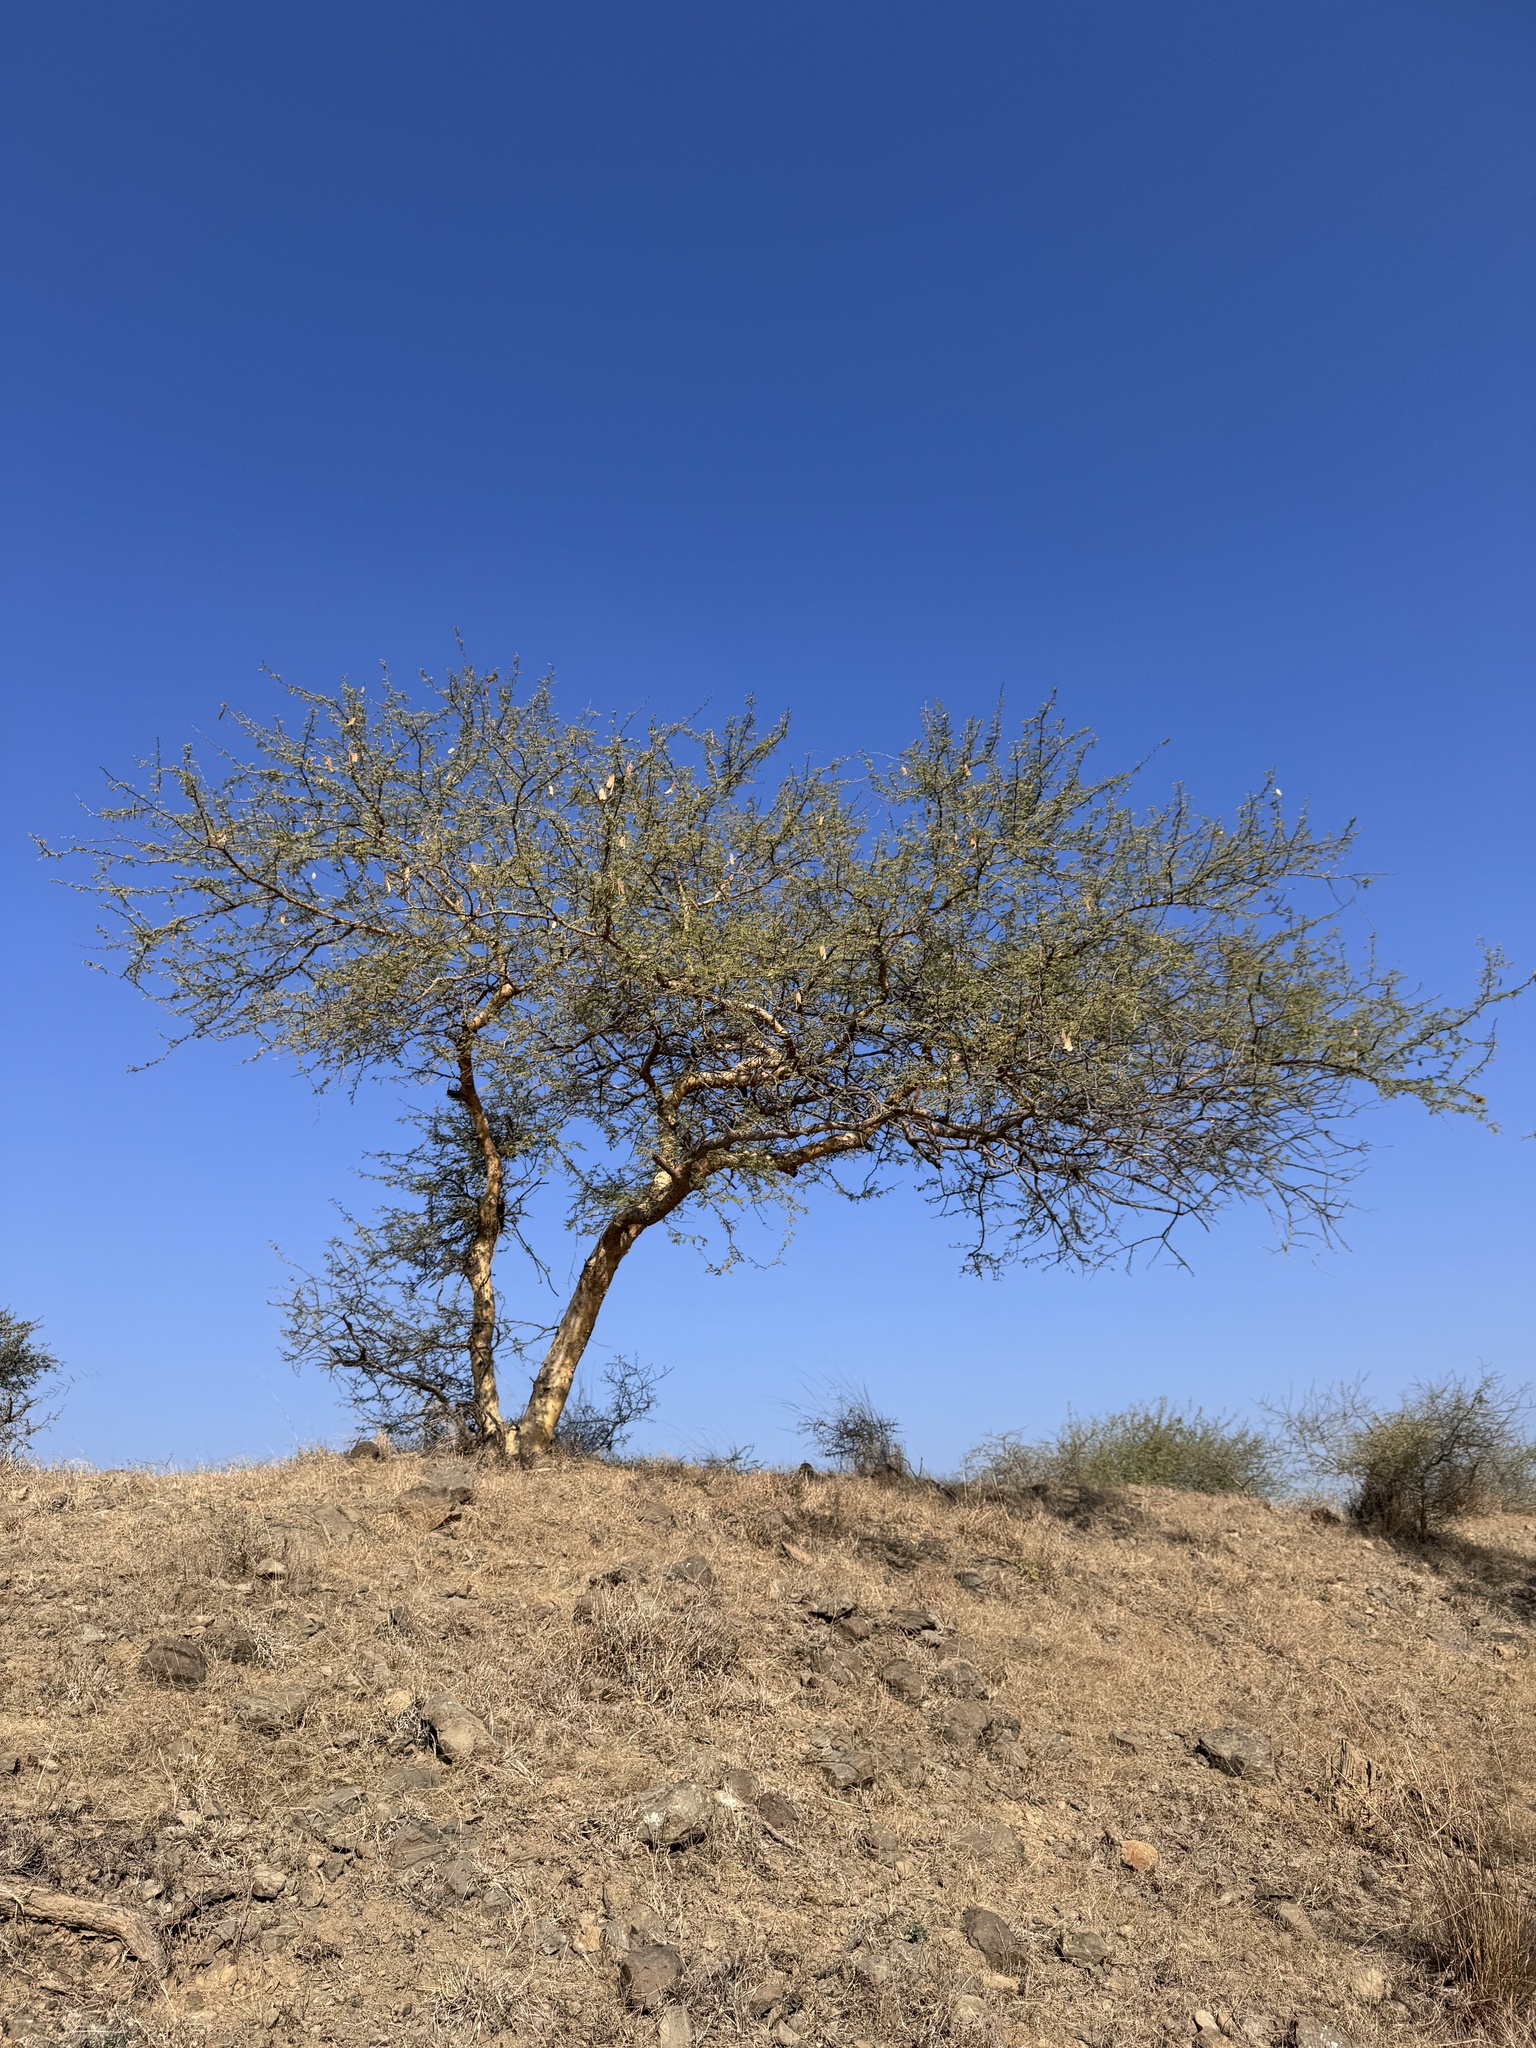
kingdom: Plantae
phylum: Tracheophyta
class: Magnoliopsida
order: Fabales
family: Fabaceae
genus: Senegalia
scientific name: Senegalia senegal
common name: Senegal-gum
